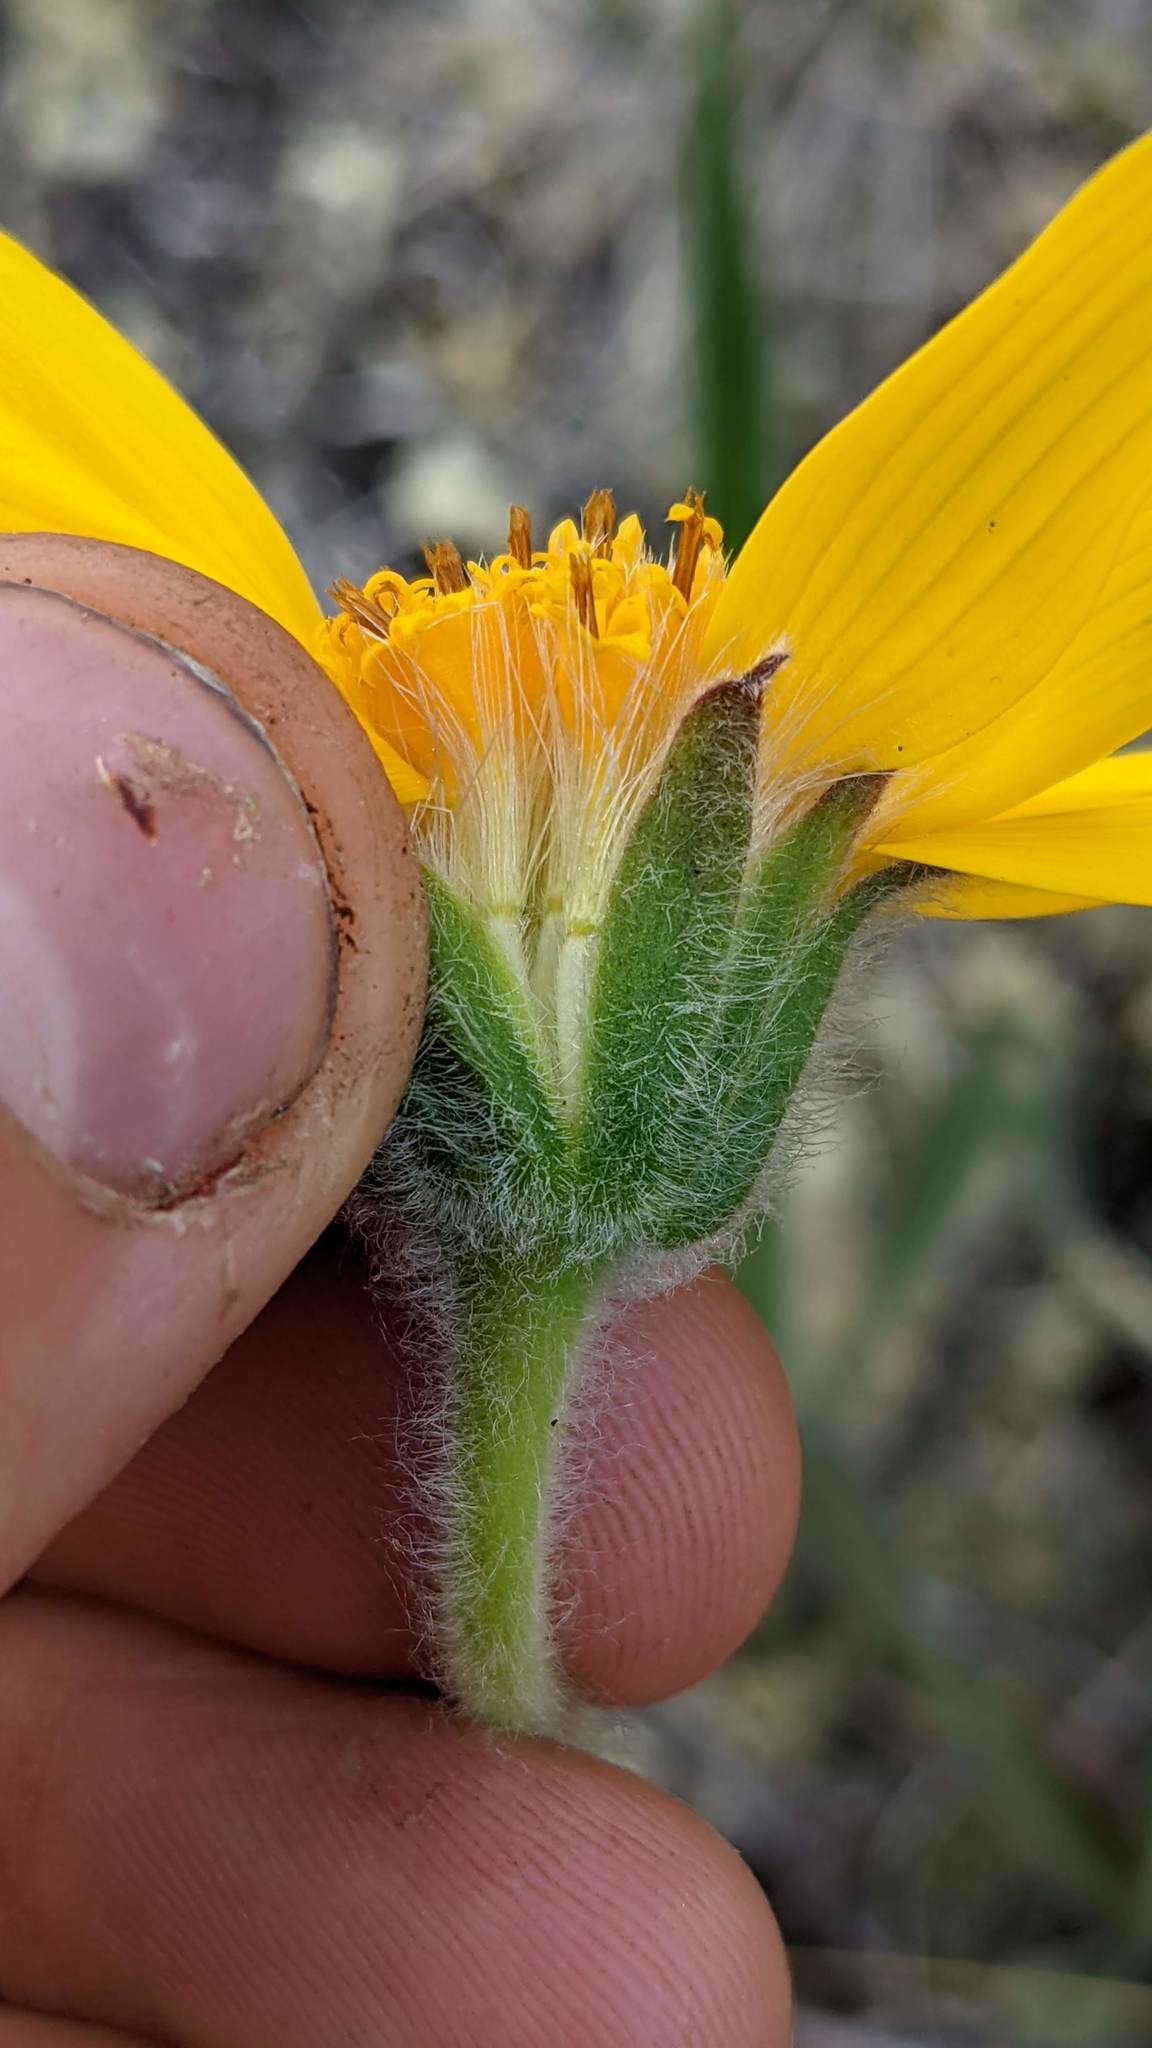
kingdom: Plantae
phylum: Tracheophyta
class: Magnoliopsida
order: Asterales
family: Asteraceae
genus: Arnica
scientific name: Arnica angustifolia
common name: Arctic arnica
